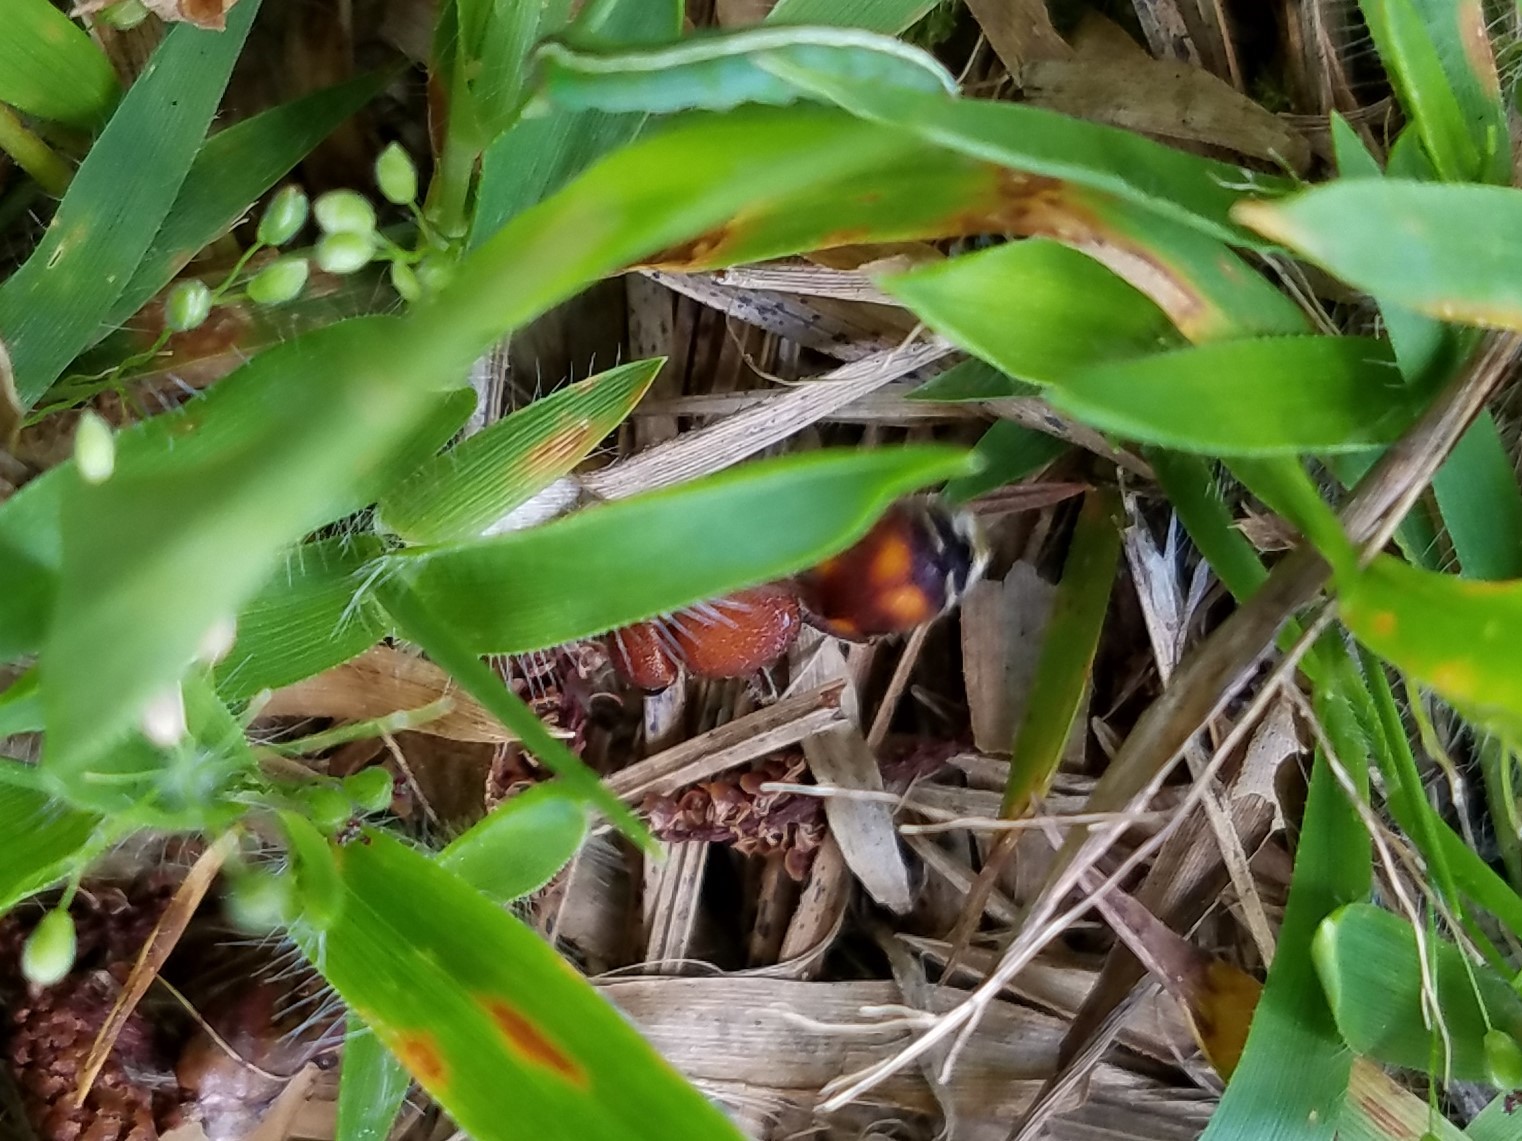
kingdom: Animalia
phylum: Arthropoda
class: Insecta
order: Hymenoptera
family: Mutillidae
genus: Dasymutilla
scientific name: Dasymutilla
